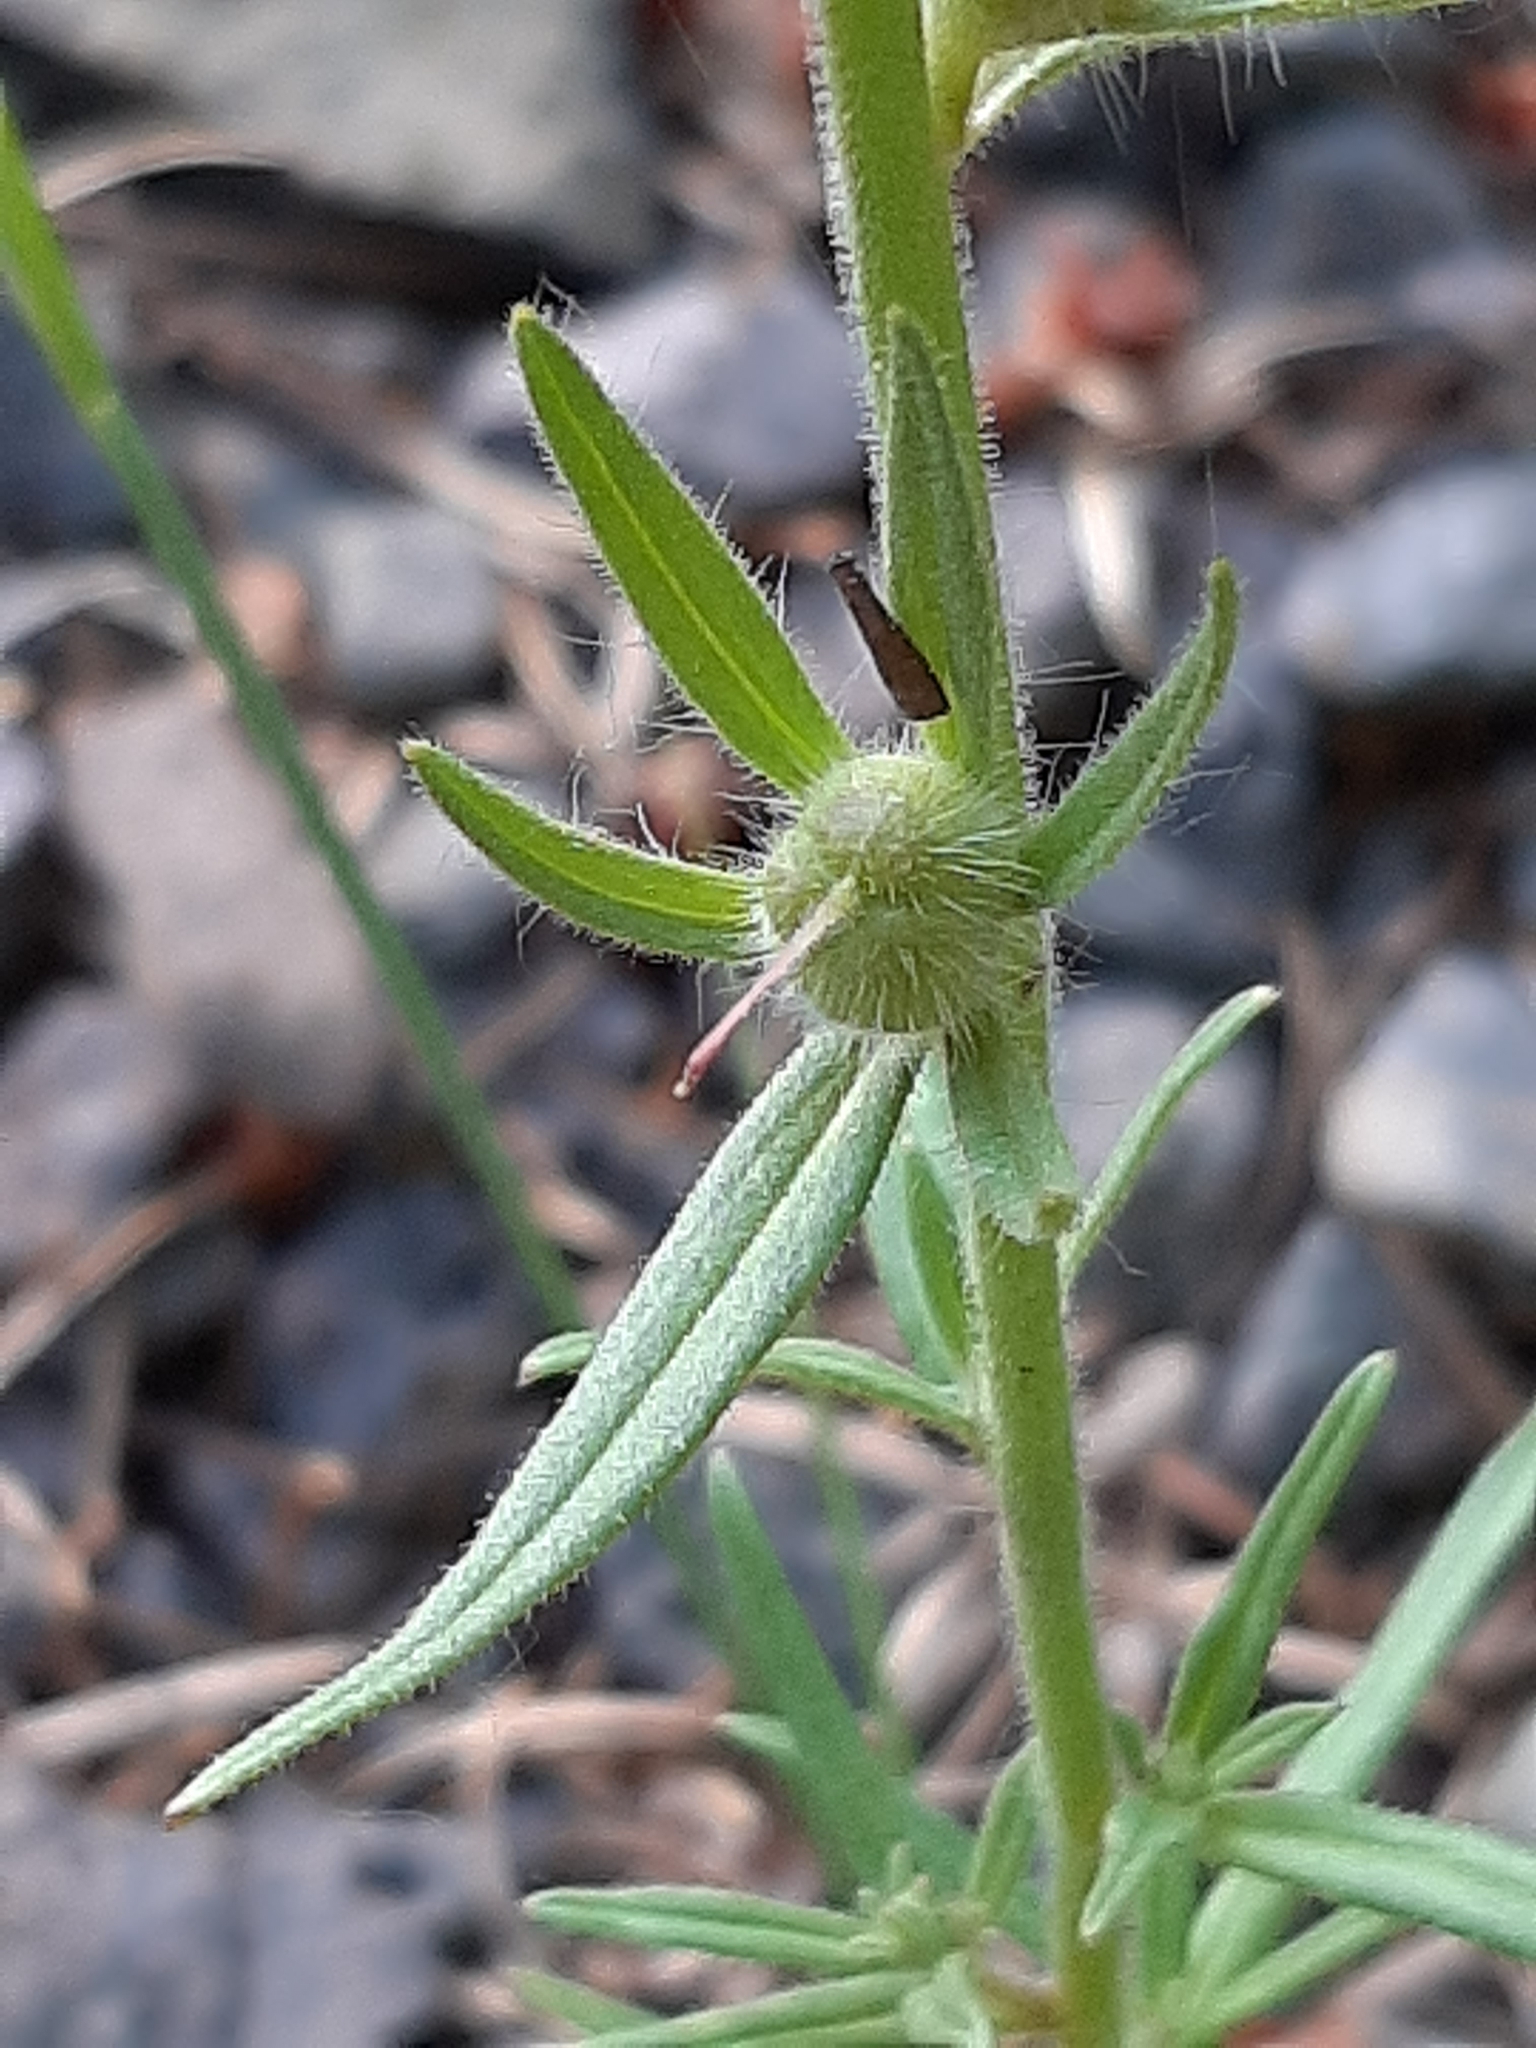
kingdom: Plantae
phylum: Tracheophyta
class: Magnoliopsida
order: Lamiales
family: Plantaginaceae
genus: Misopates
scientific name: Misopates orontium
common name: Weasel's-snout
